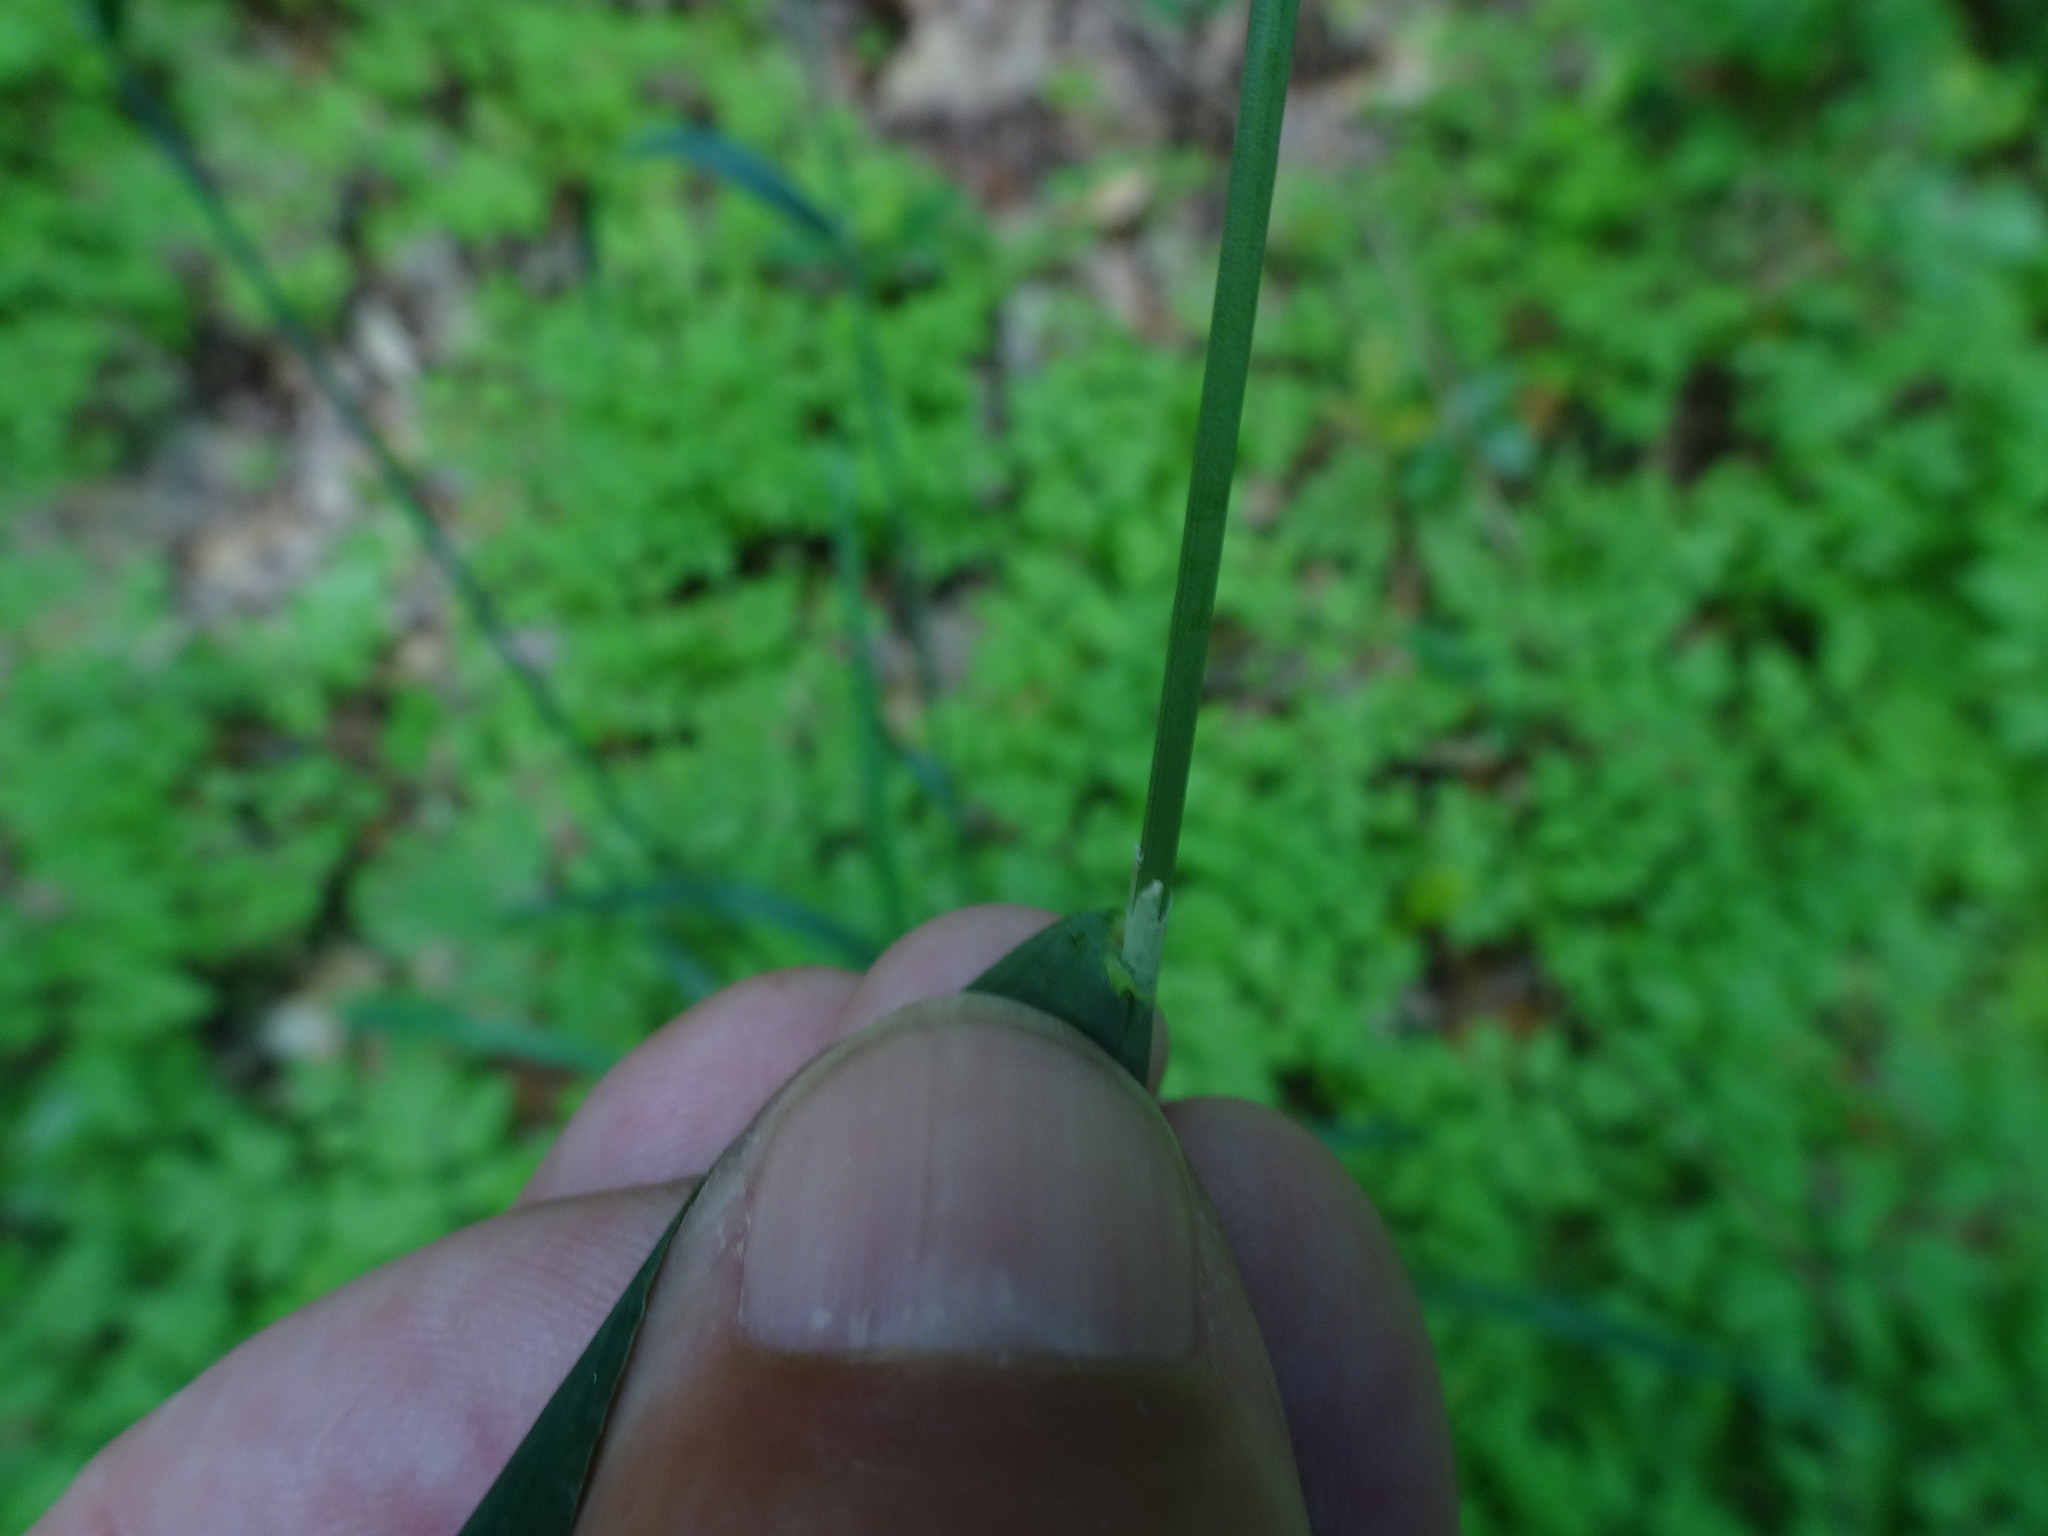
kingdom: Plantae
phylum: Tracheophyta
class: Liliopsida
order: Poales
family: Poaceae
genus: Milium
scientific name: Milium effusum
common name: Wood millet
